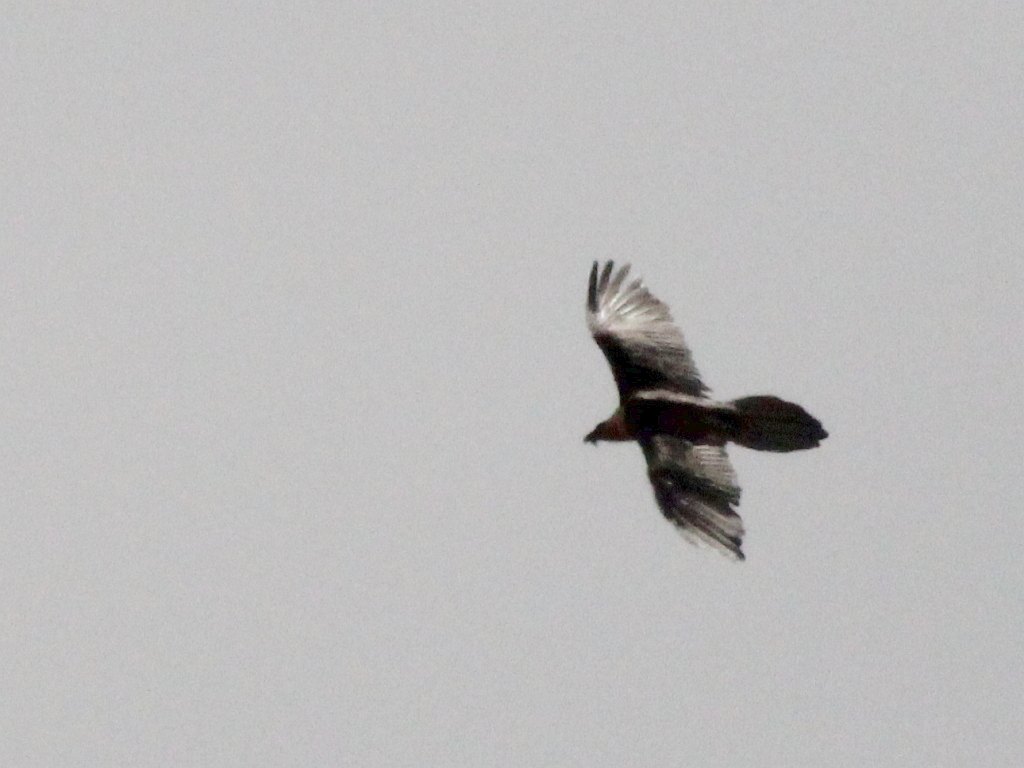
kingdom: Animalia
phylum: Chordata
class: Aves
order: Accipitriformes
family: Accipitridae
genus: Gypaetus
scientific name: Gypaetus barbatus
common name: Bearded vulture
